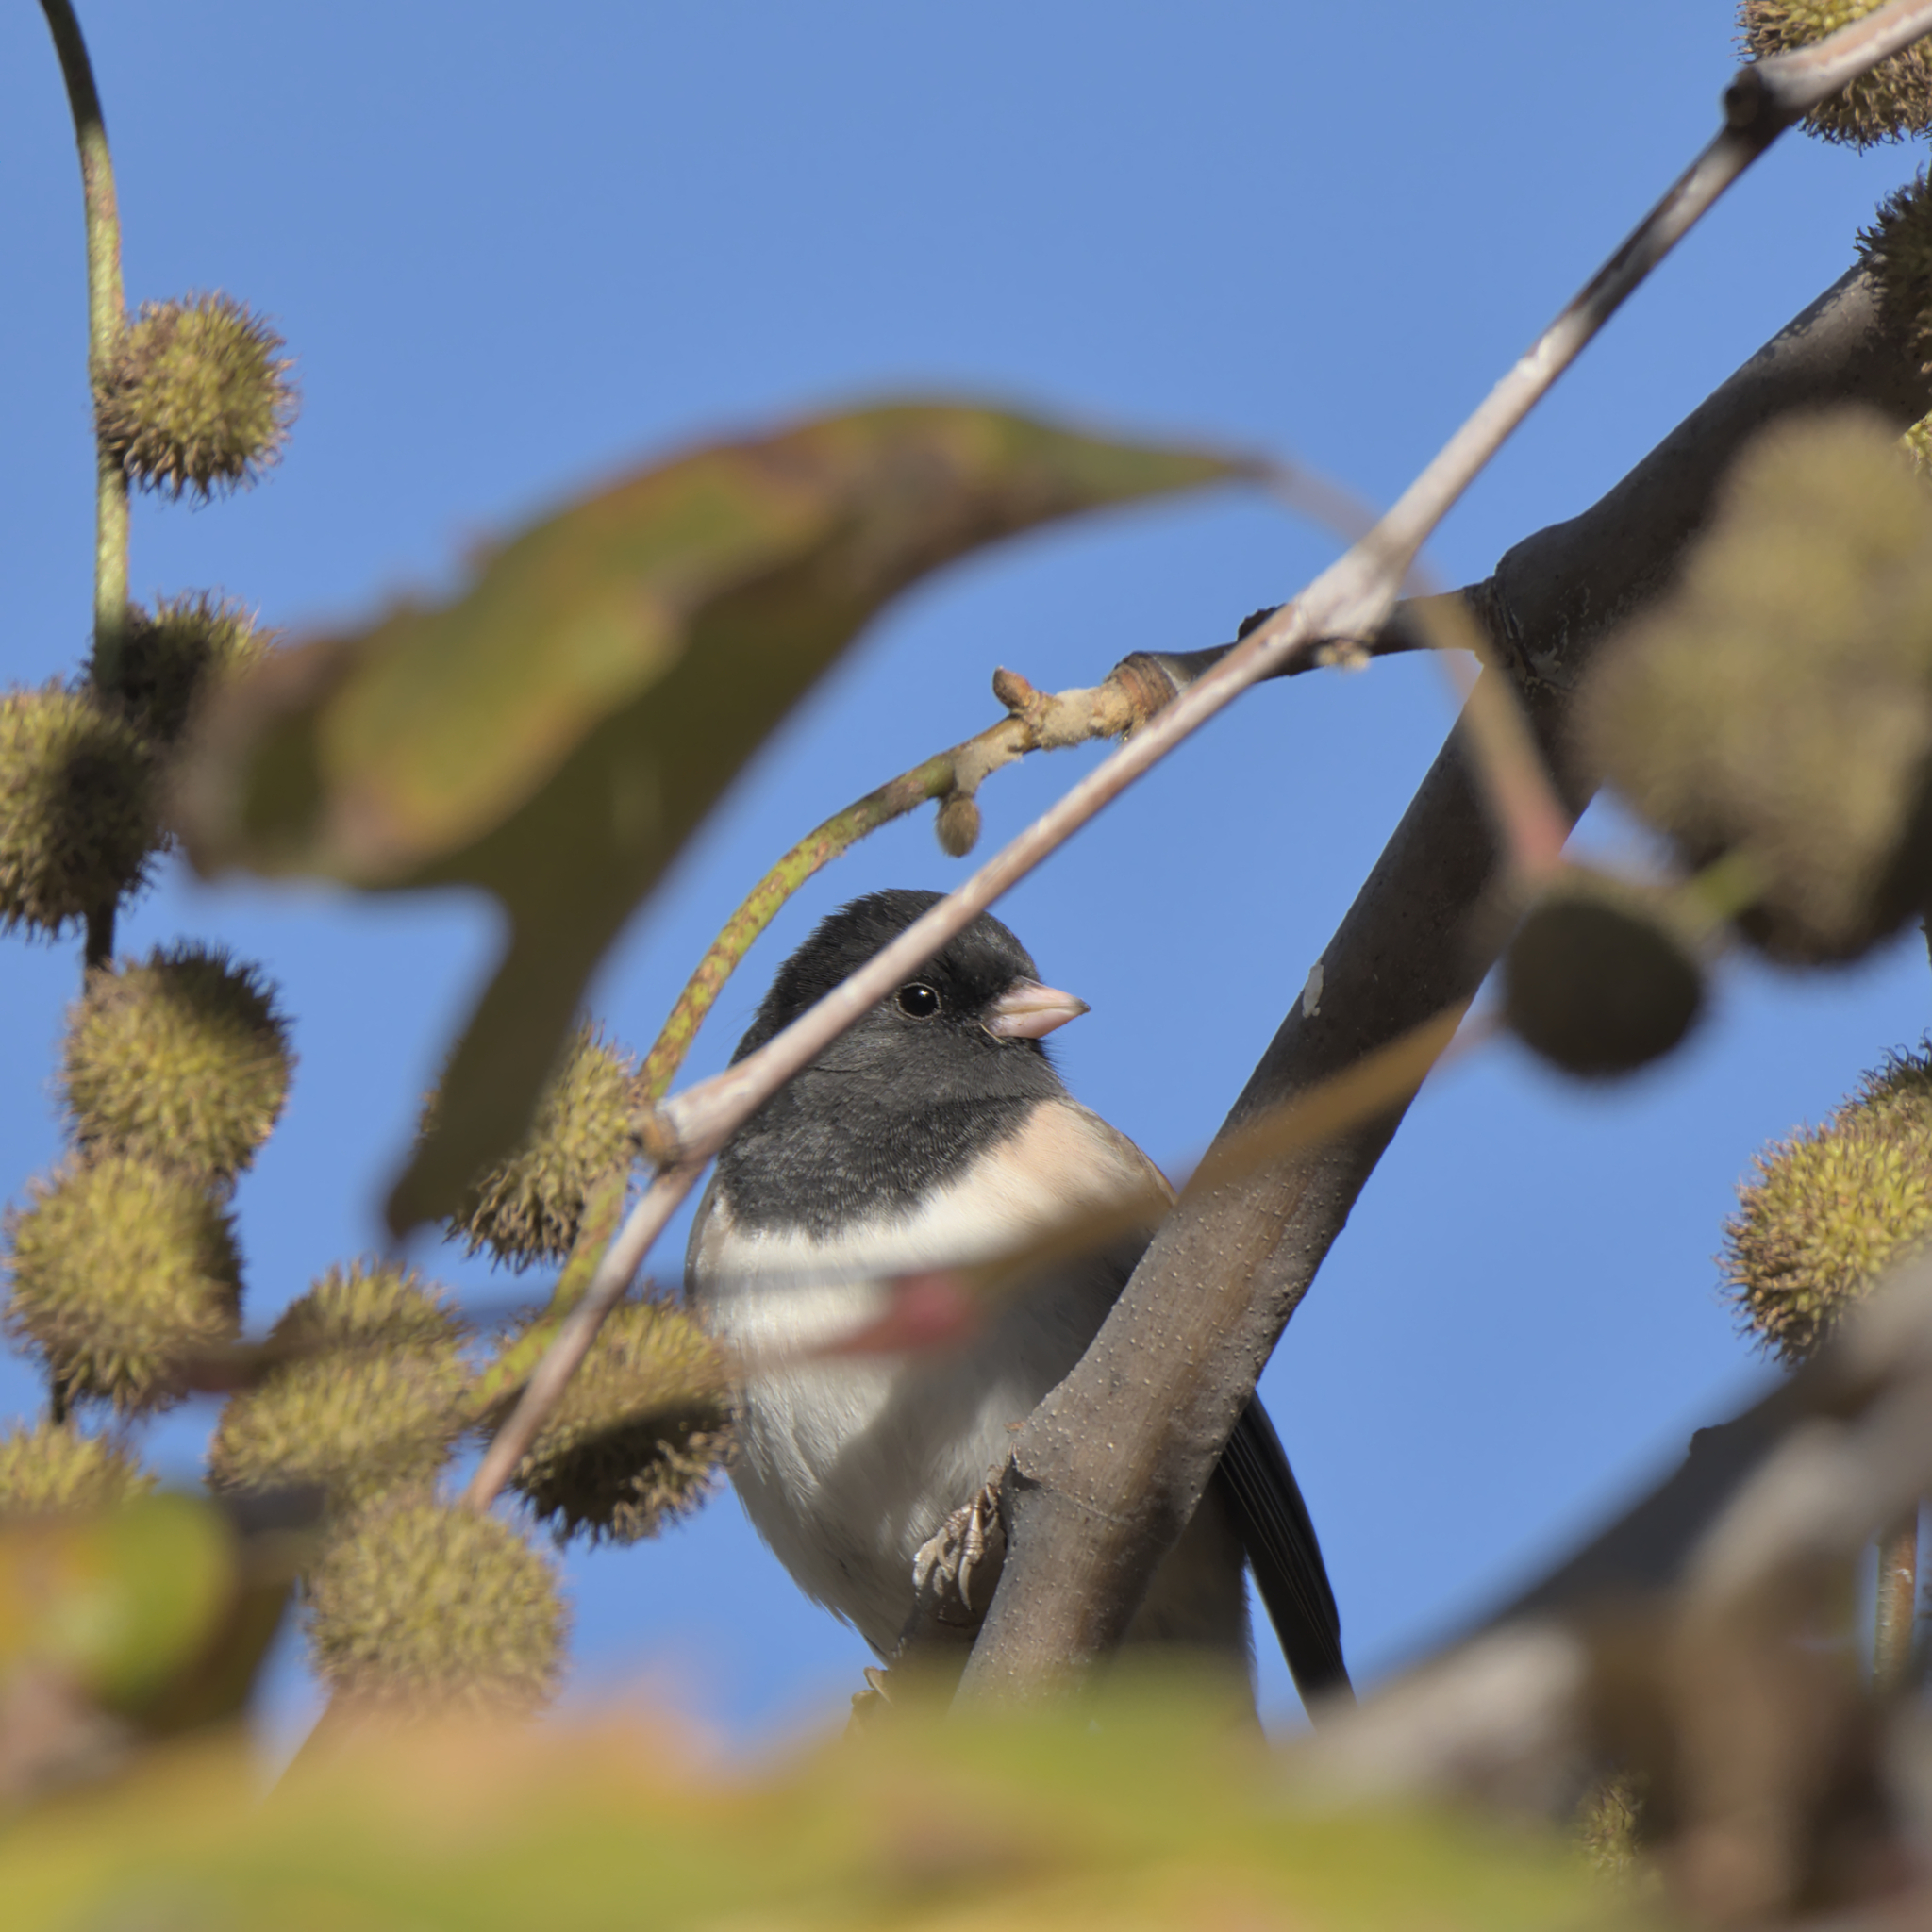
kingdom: Animalia
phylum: Chordata
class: Aves
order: Passeriformes
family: Passerellidae
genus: Junco
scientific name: Junco hyemalis
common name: Dark-eyed junco
